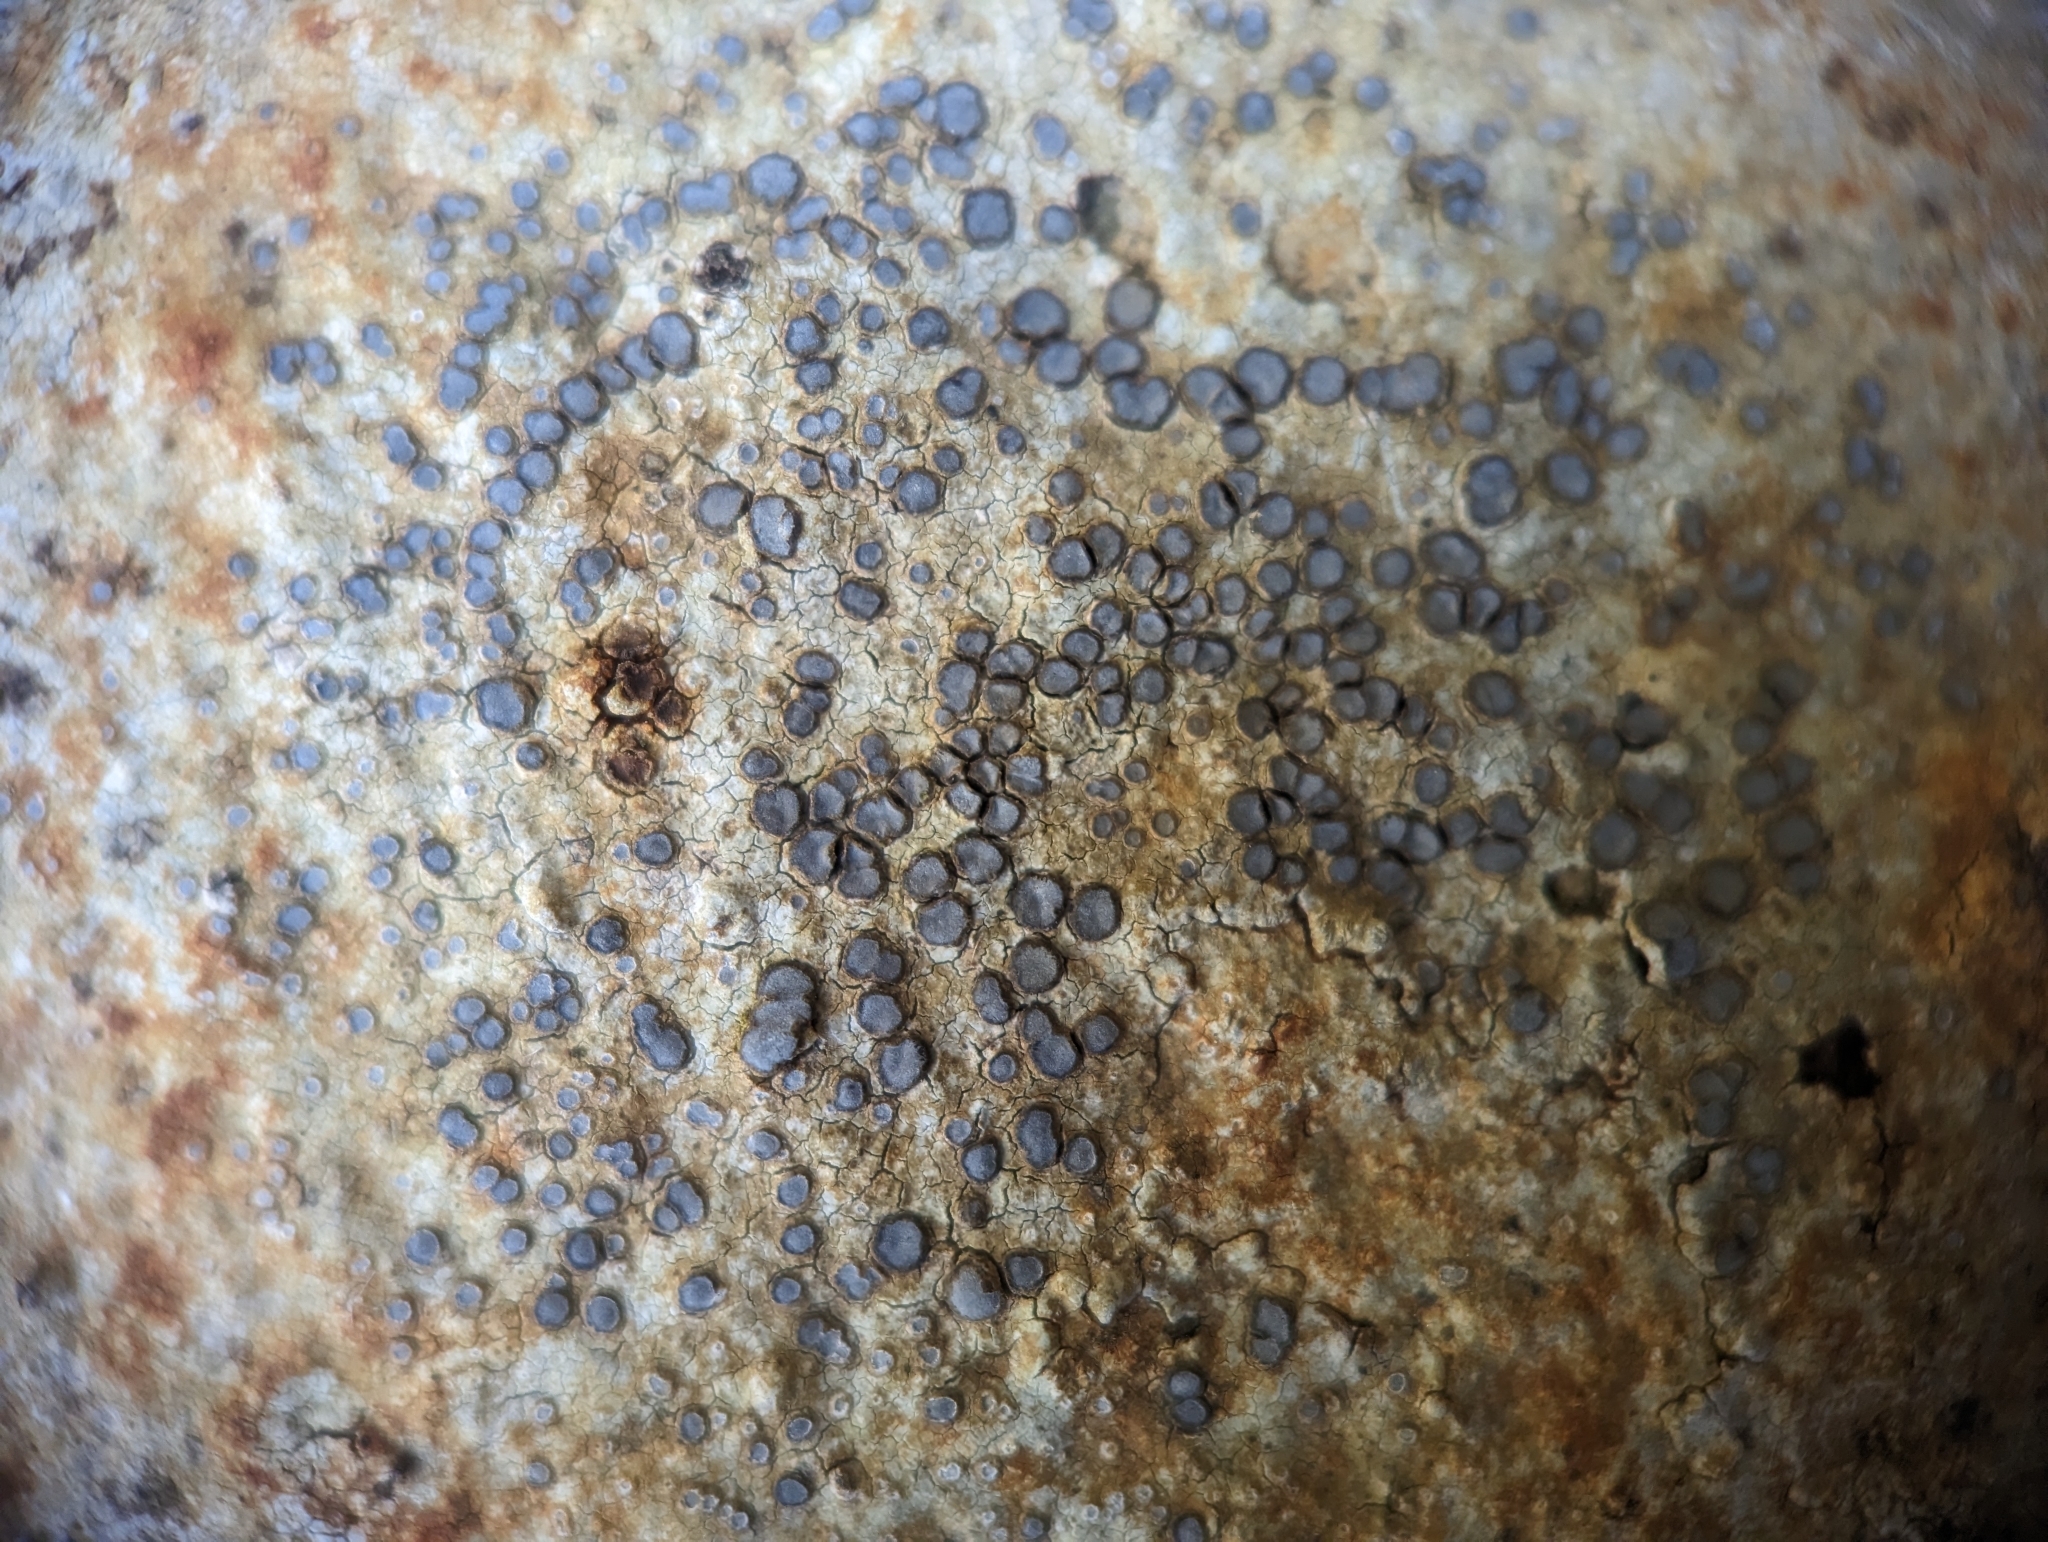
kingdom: Fungi
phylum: Ascomycota
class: Lecanoromycetes
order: Lecideales
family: Lecideaceae
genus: Porpidia
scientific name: Porpidia albocaerulescens
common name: Smokey-eyed boulder lichen
